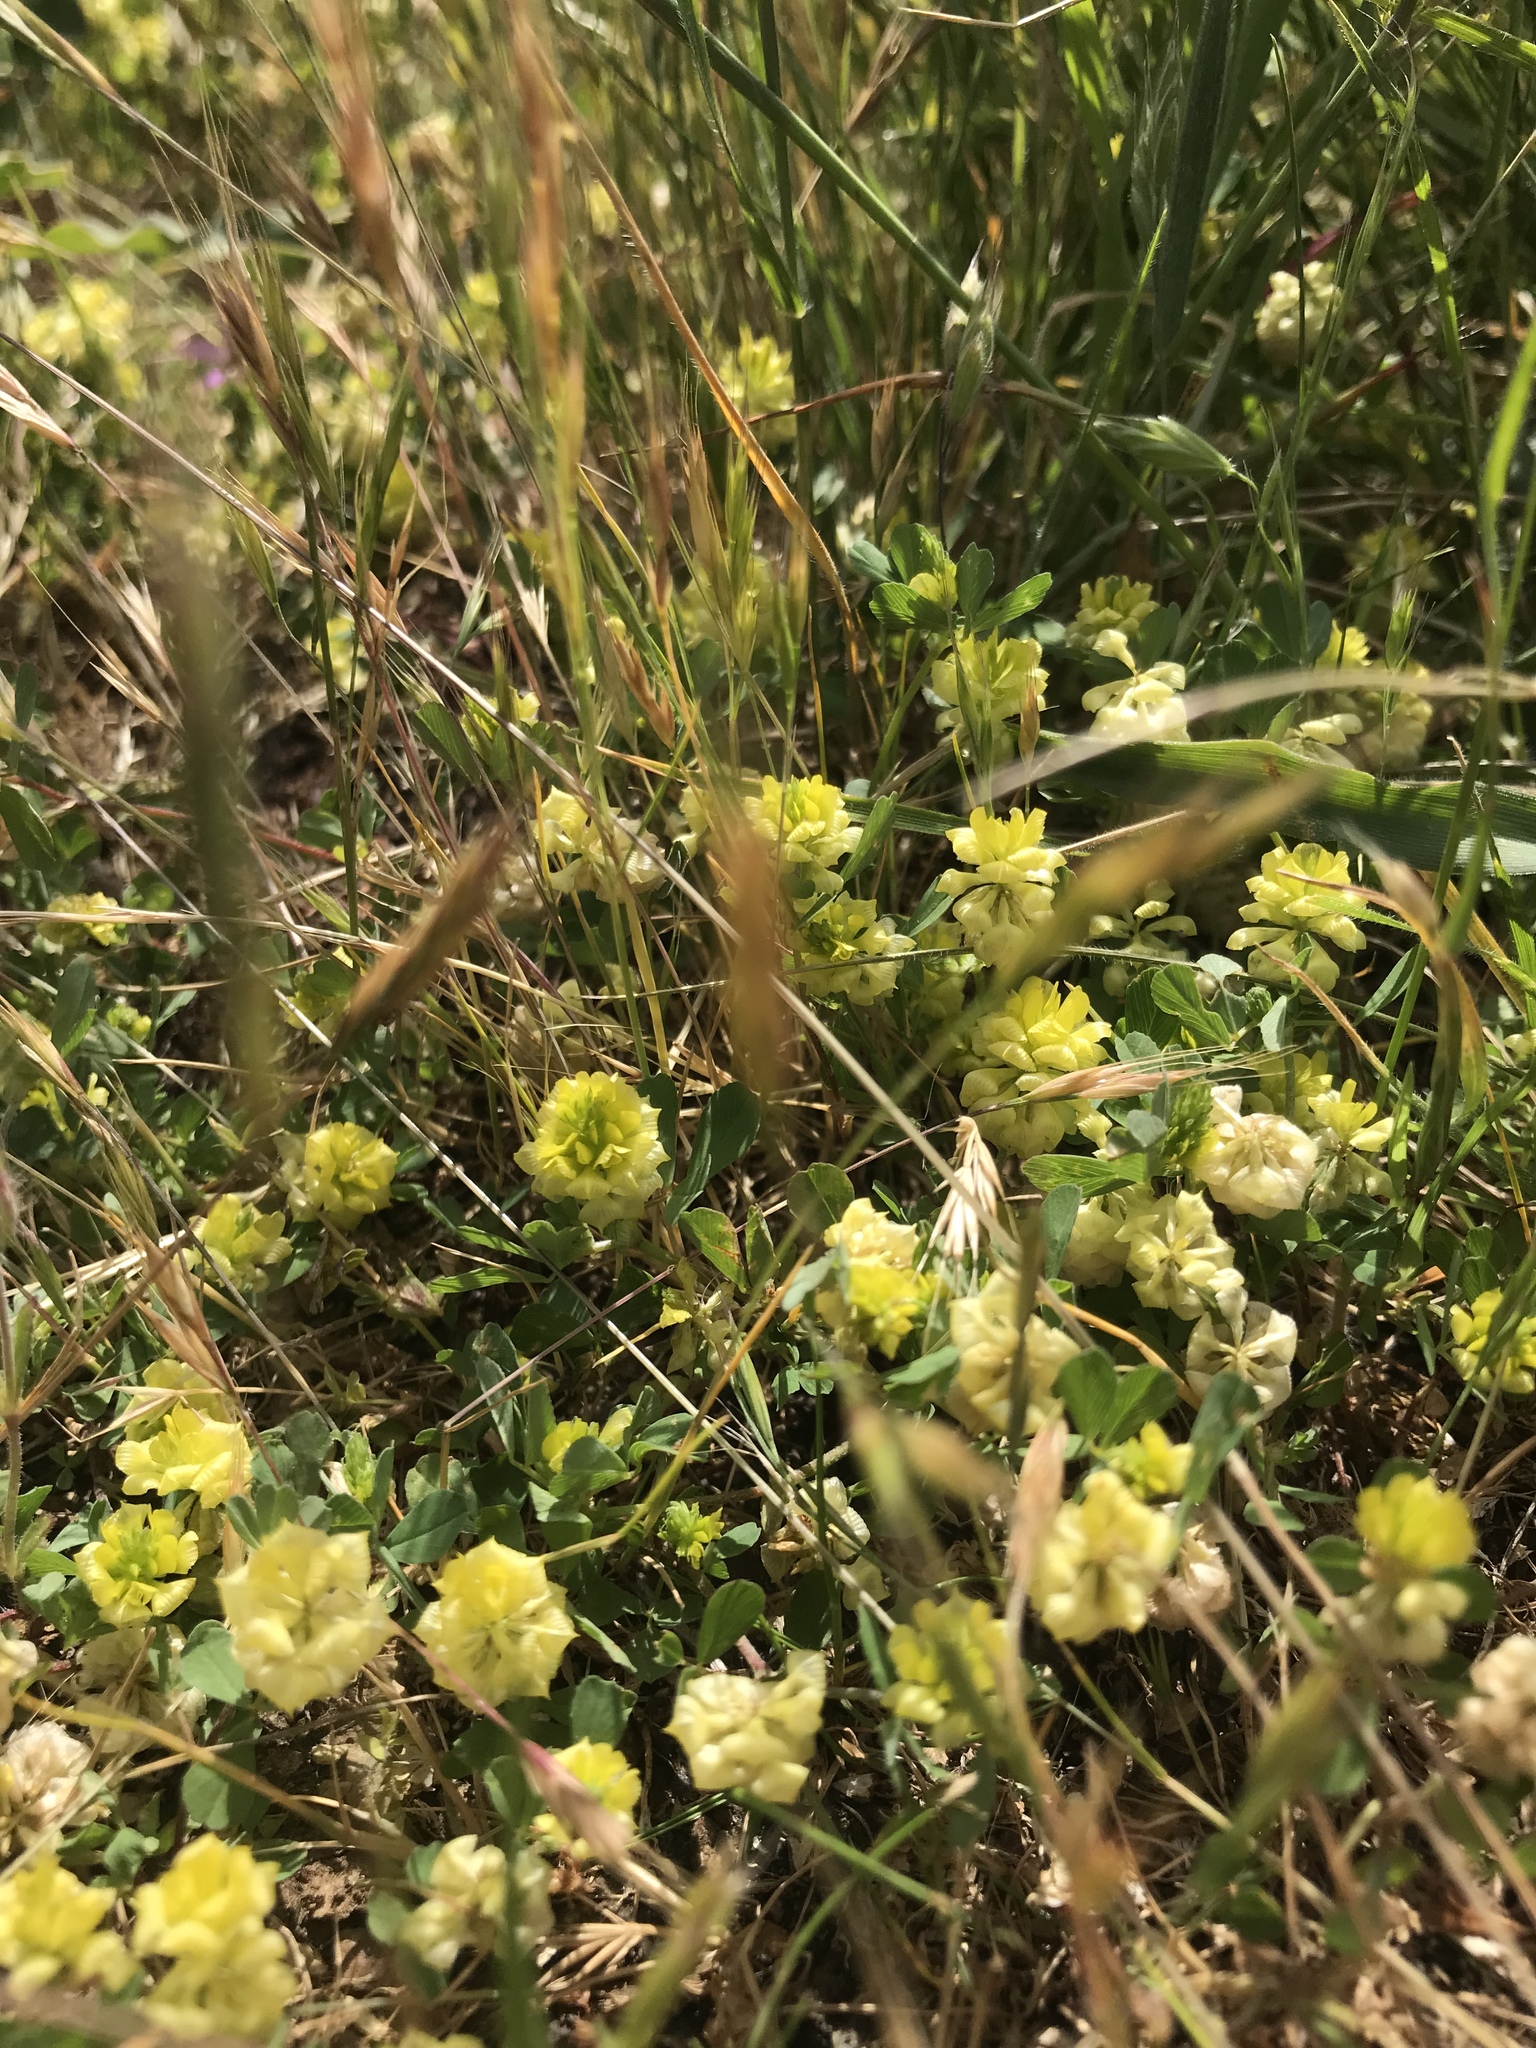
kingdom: Plantae
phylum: Tracheophyta
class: Magnoliopsida
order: Fabales
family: Fabaceae
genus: Trifolium
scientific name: Trifolium campestre
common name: Field clover
